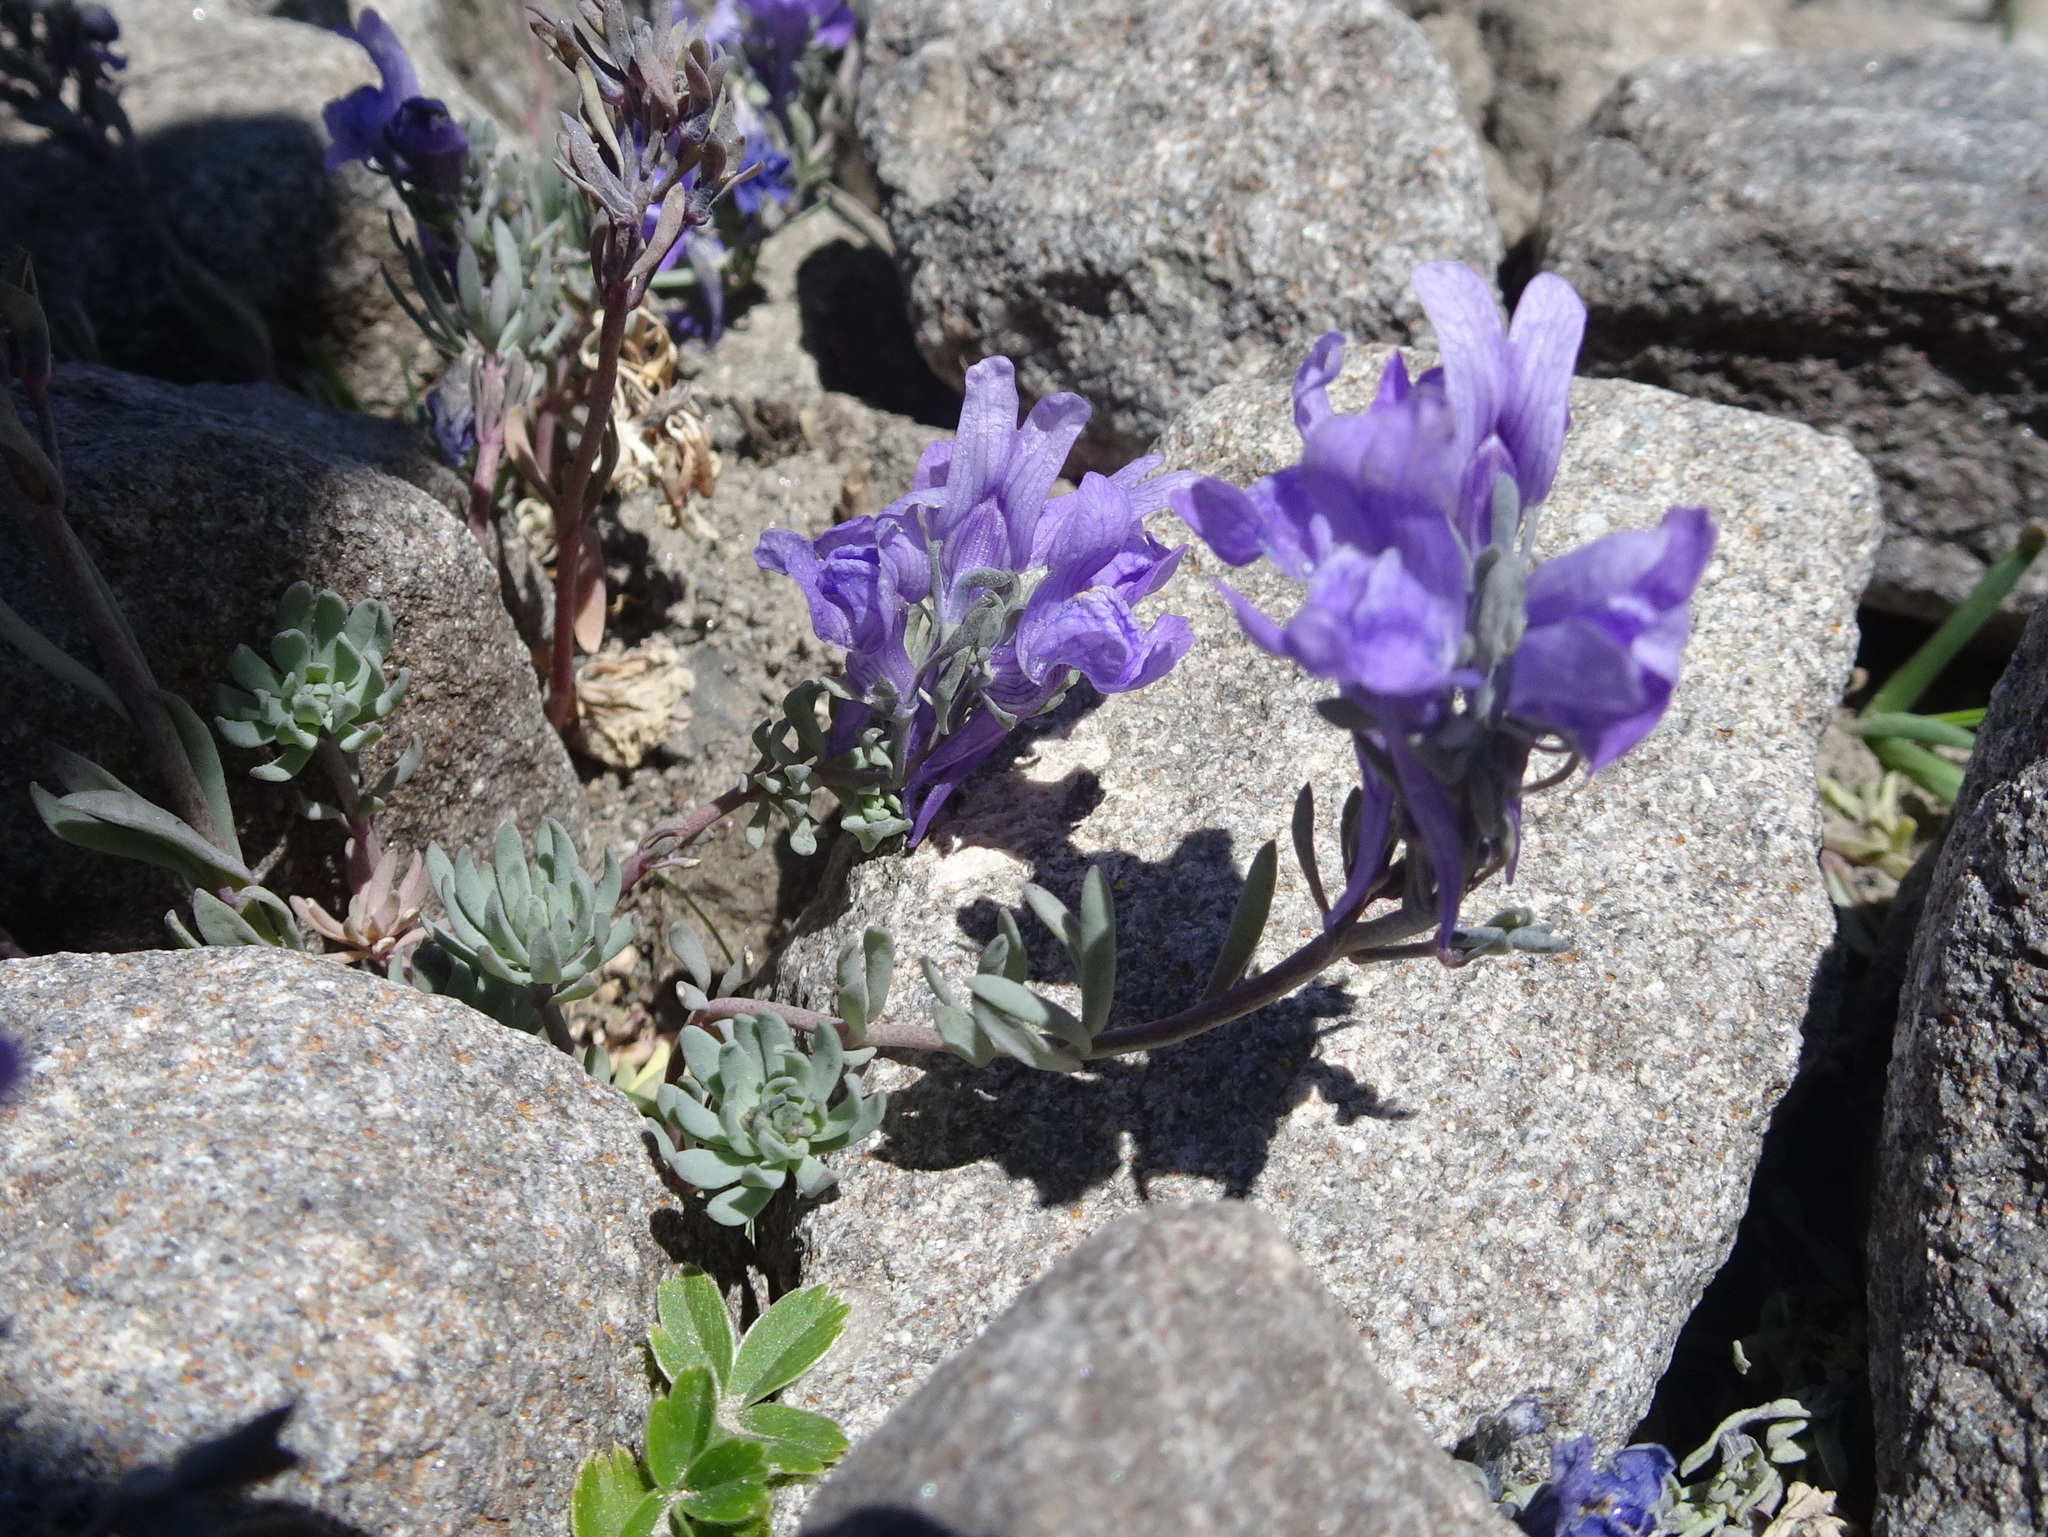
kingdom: Plantae
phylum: Tracheophyta
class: Magnoliopsida
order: Lamiales
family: Plantaginaceae
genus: Linaria
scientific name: Linaria alpina
